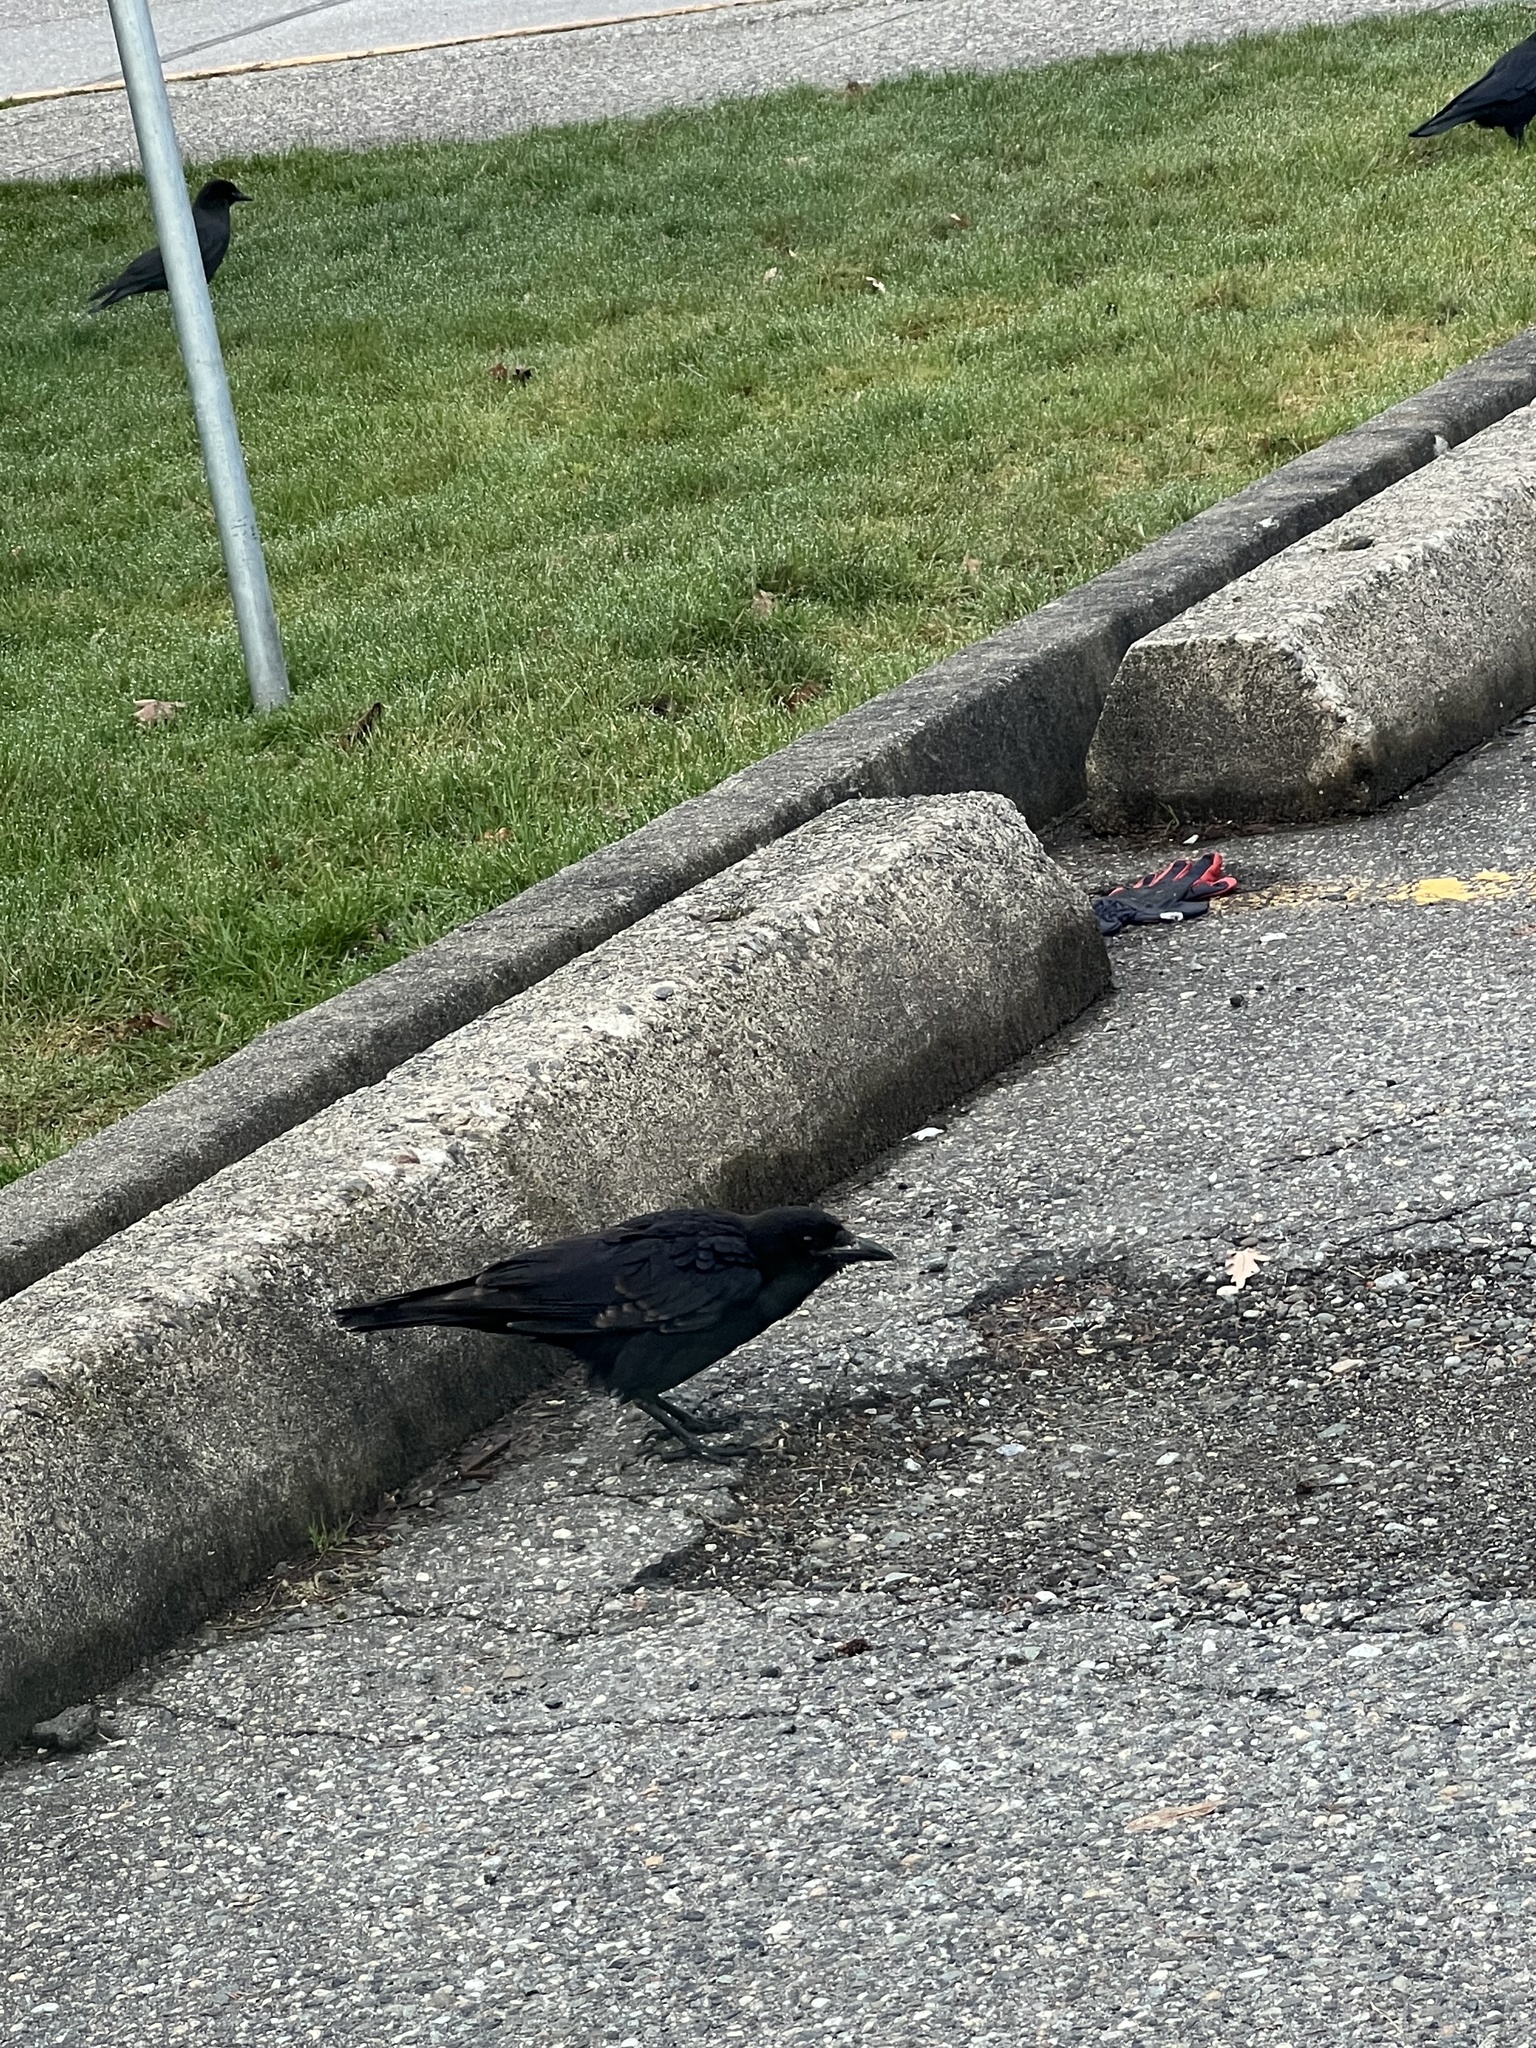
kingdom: Animalia
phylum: Chordata
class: Aves
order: Passeriformes
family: Corvidae
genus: Corvus
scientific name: Corvus brachyrhynchos
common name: American crow
